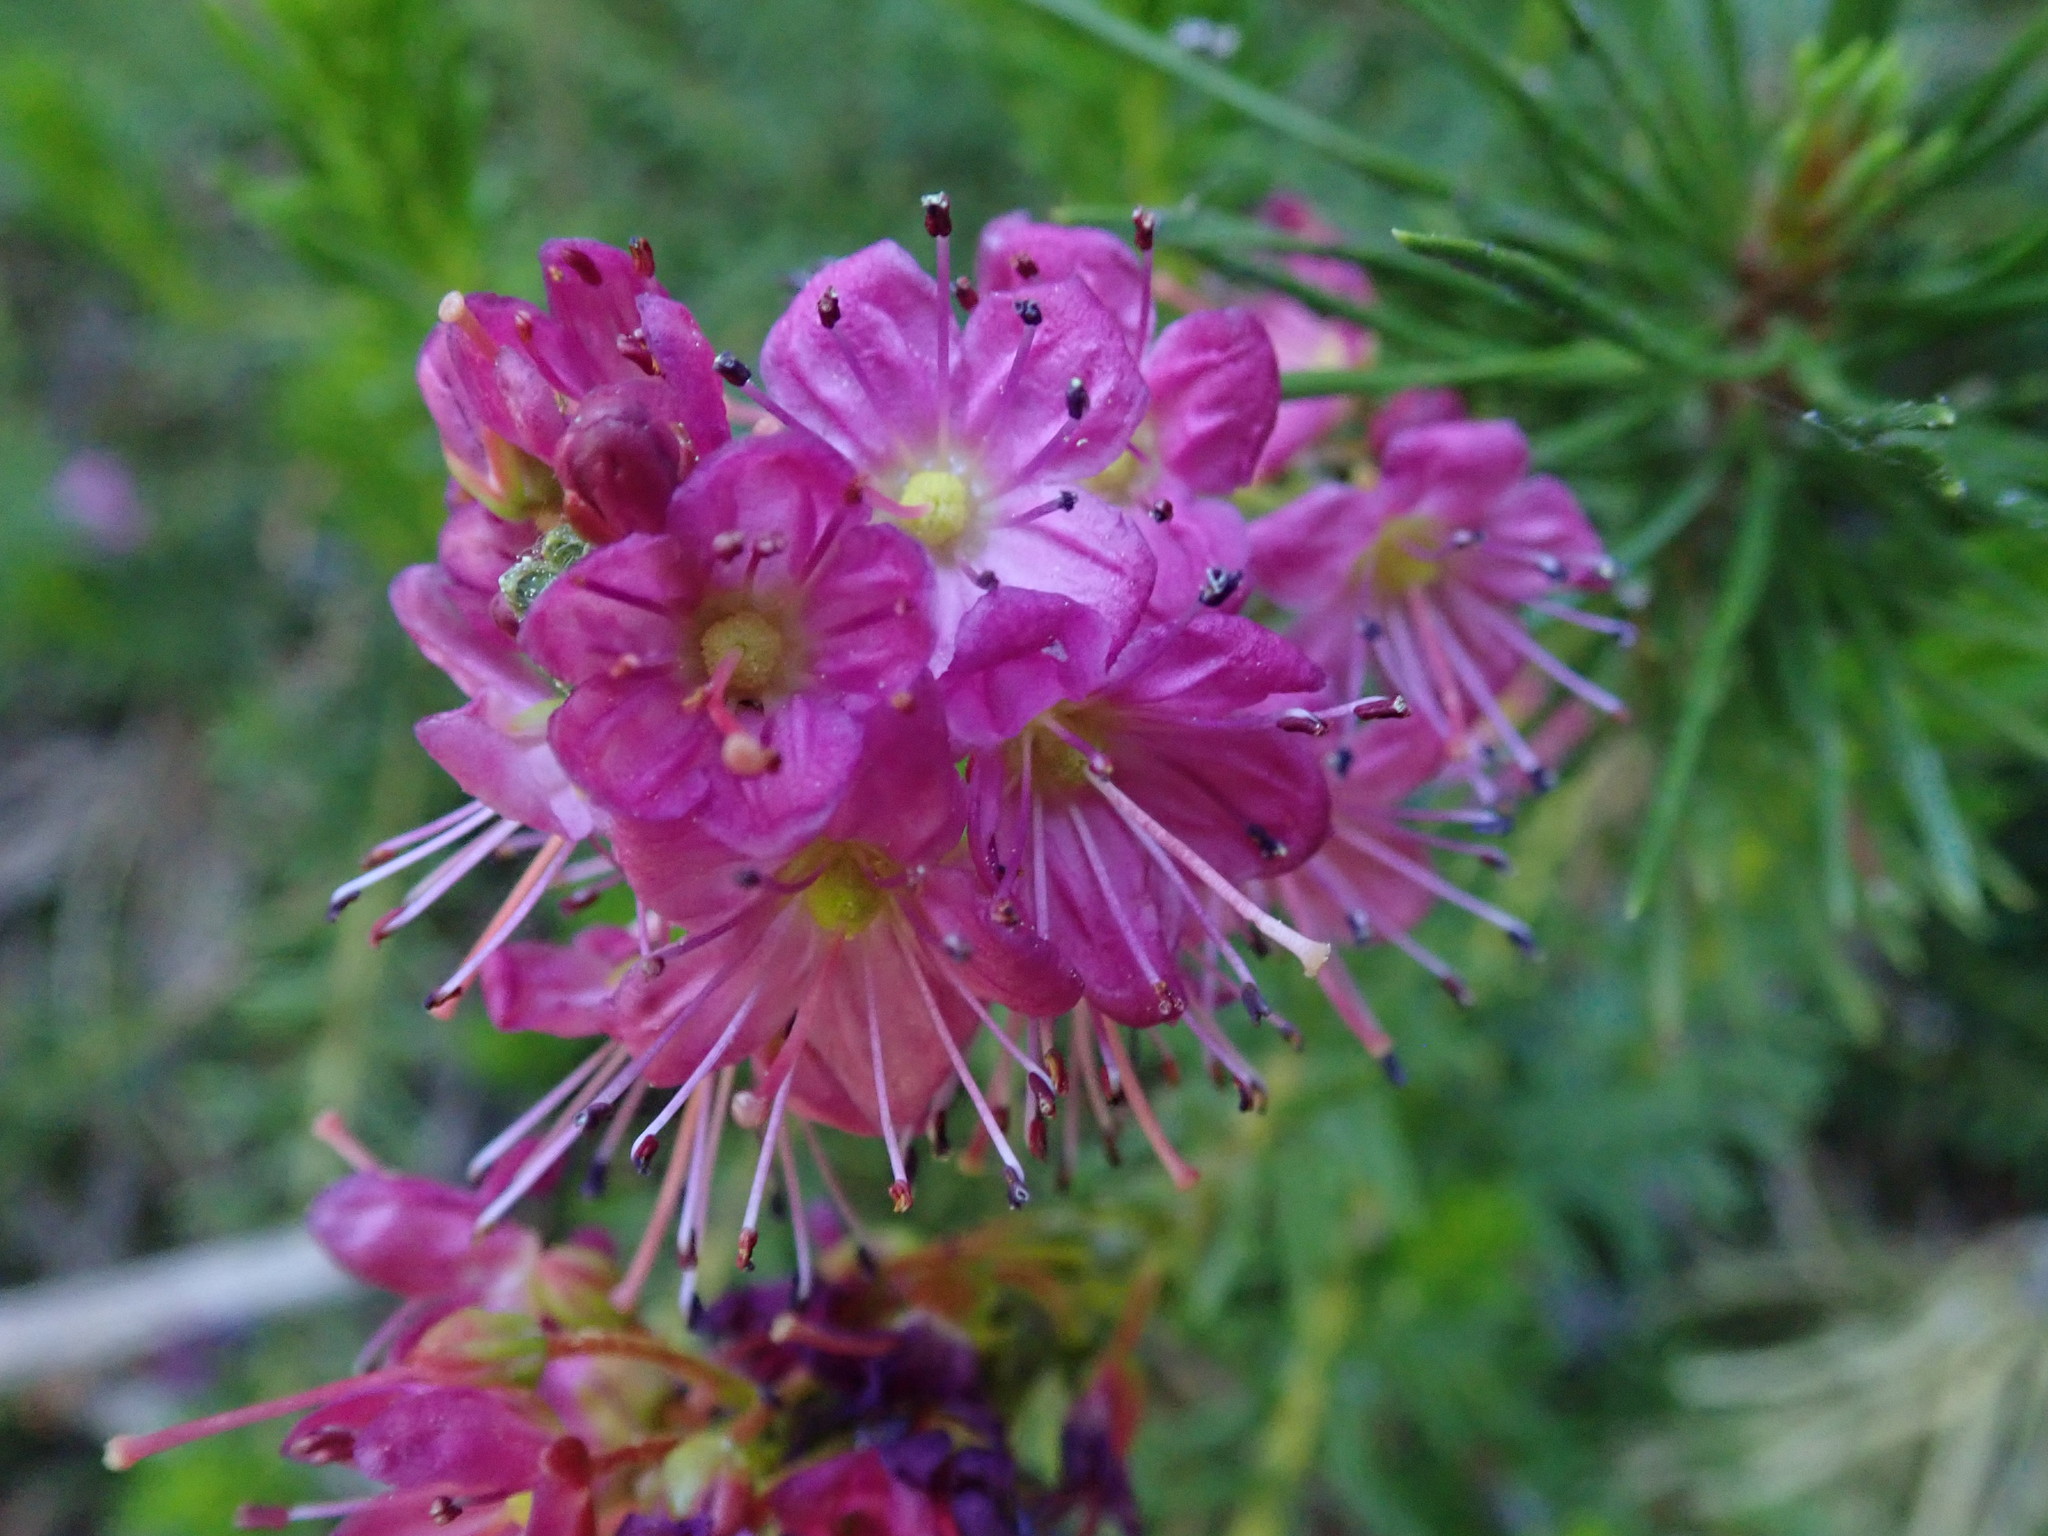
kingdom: Plantae
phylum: Tracheophyta
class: Magnoliopsida
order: Ericales
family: Ericaceae
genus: Phyllodoce
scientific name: Phyllodoce breweri
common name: Brewer's mountain-heather
